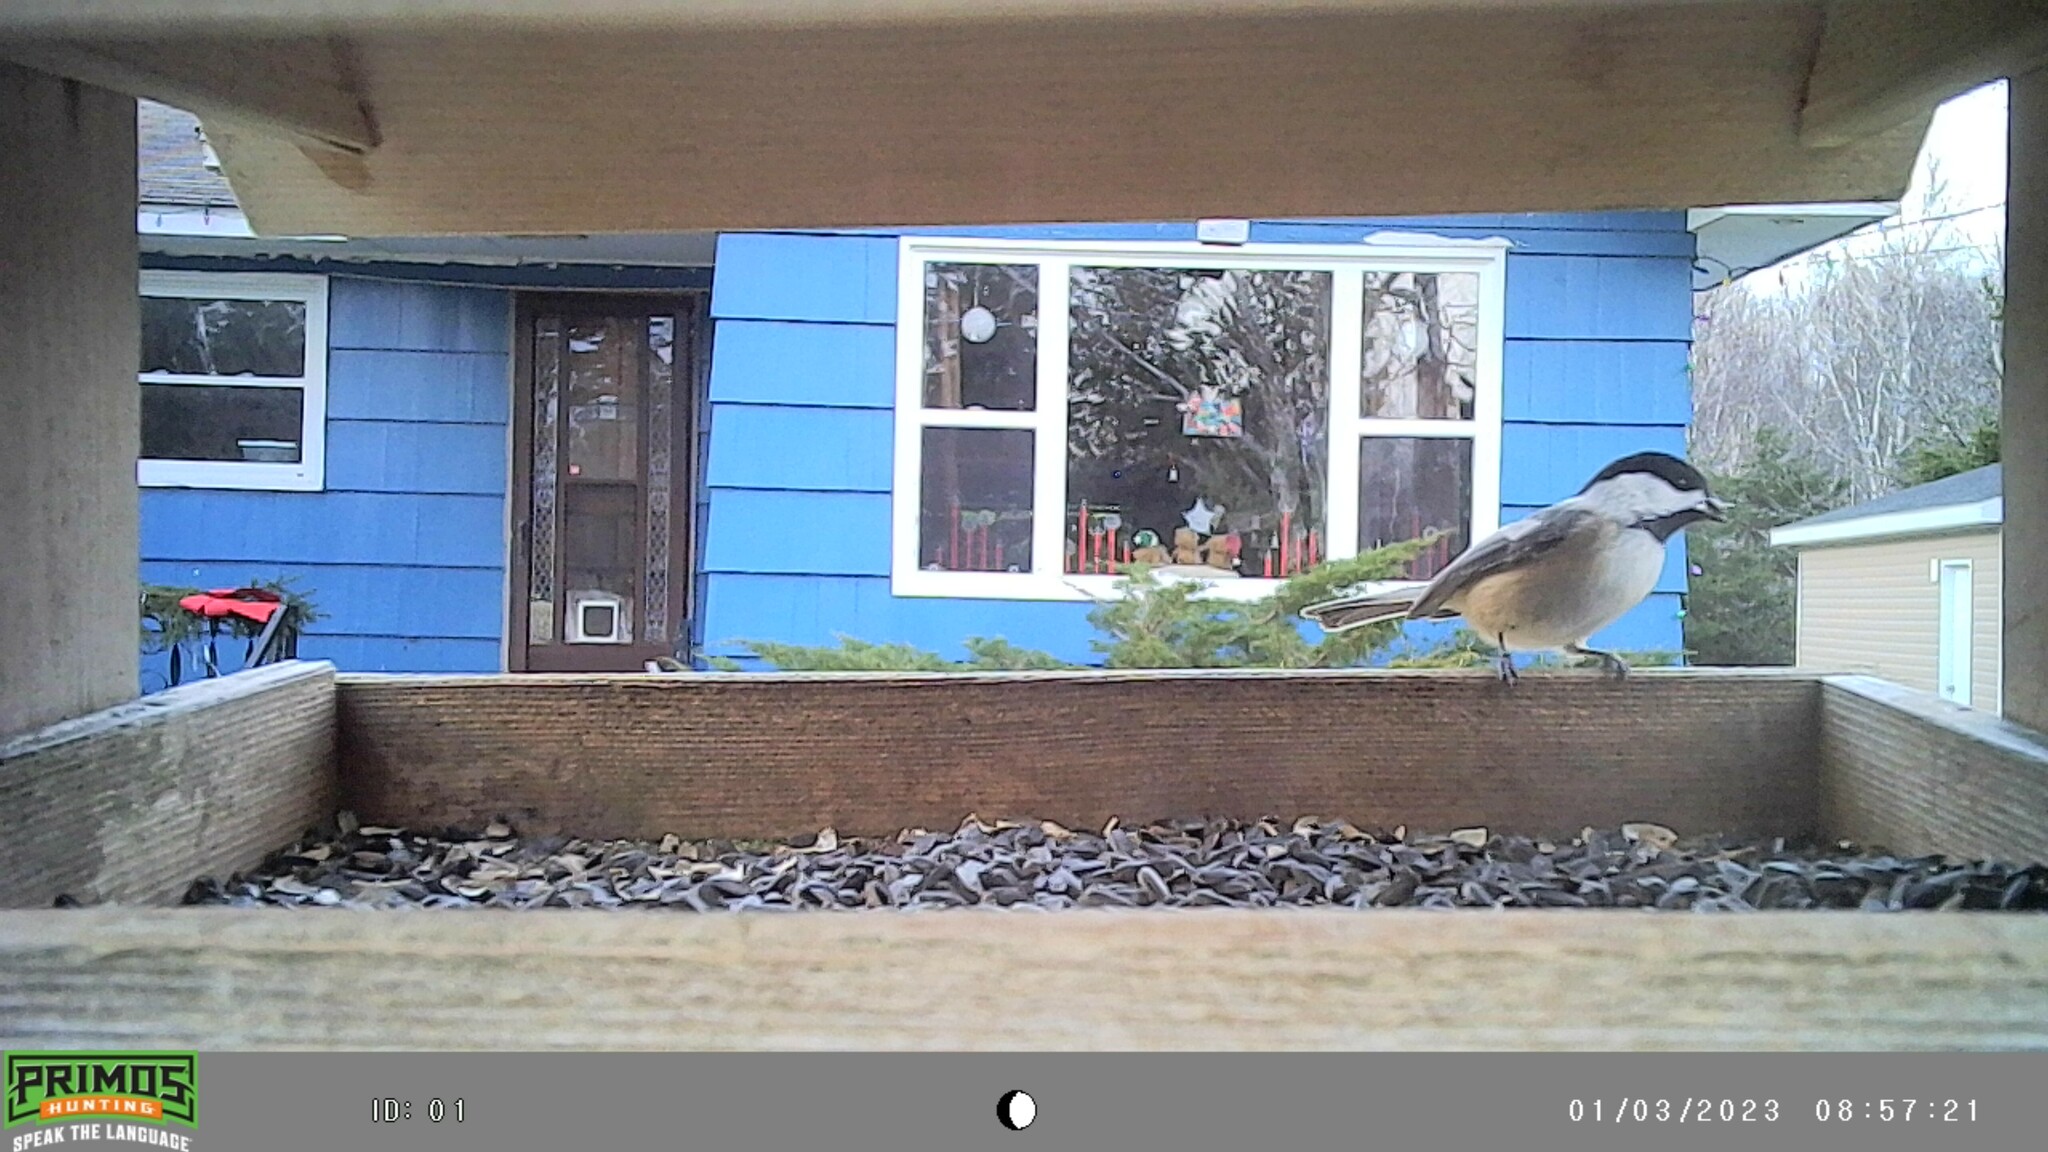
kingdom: Animalia
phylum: Chordata
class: Aves
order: Passeriformes
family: Paridae
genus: Poecile
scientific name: Poecile atricapillus
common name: Black-capped chickadee
